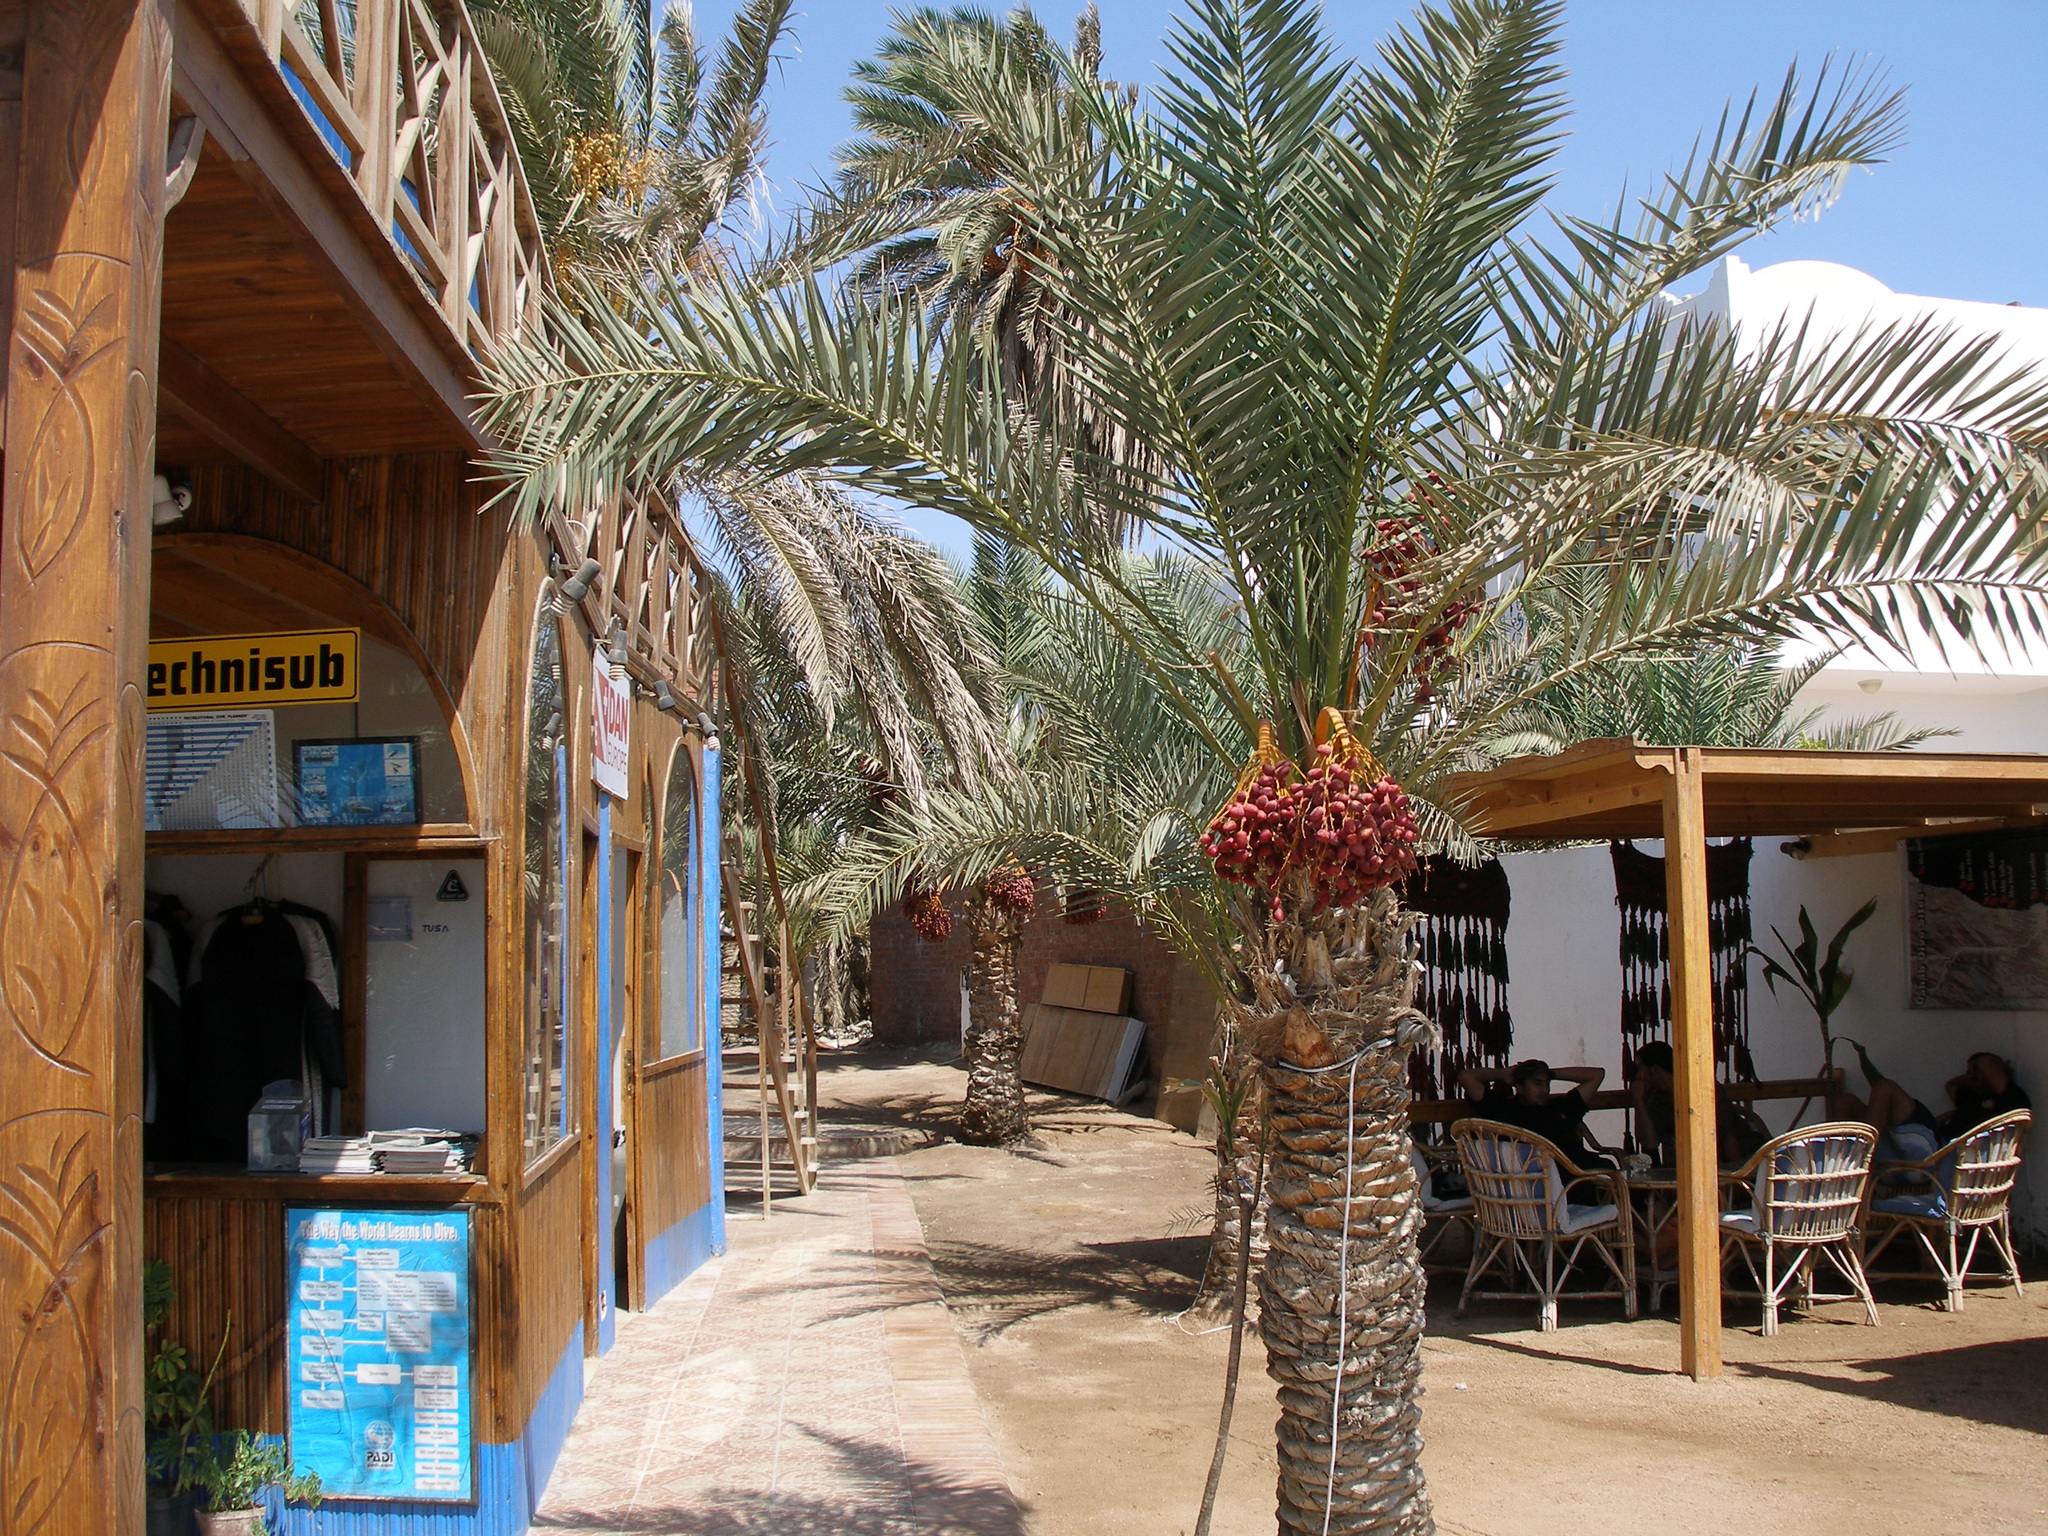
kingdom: Plantae
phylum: Tracheophyta
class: Liliopsida
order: Arecales
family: Arecaceae
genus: Phoenix
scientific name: Phoenix dactylifera
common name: Date palm
